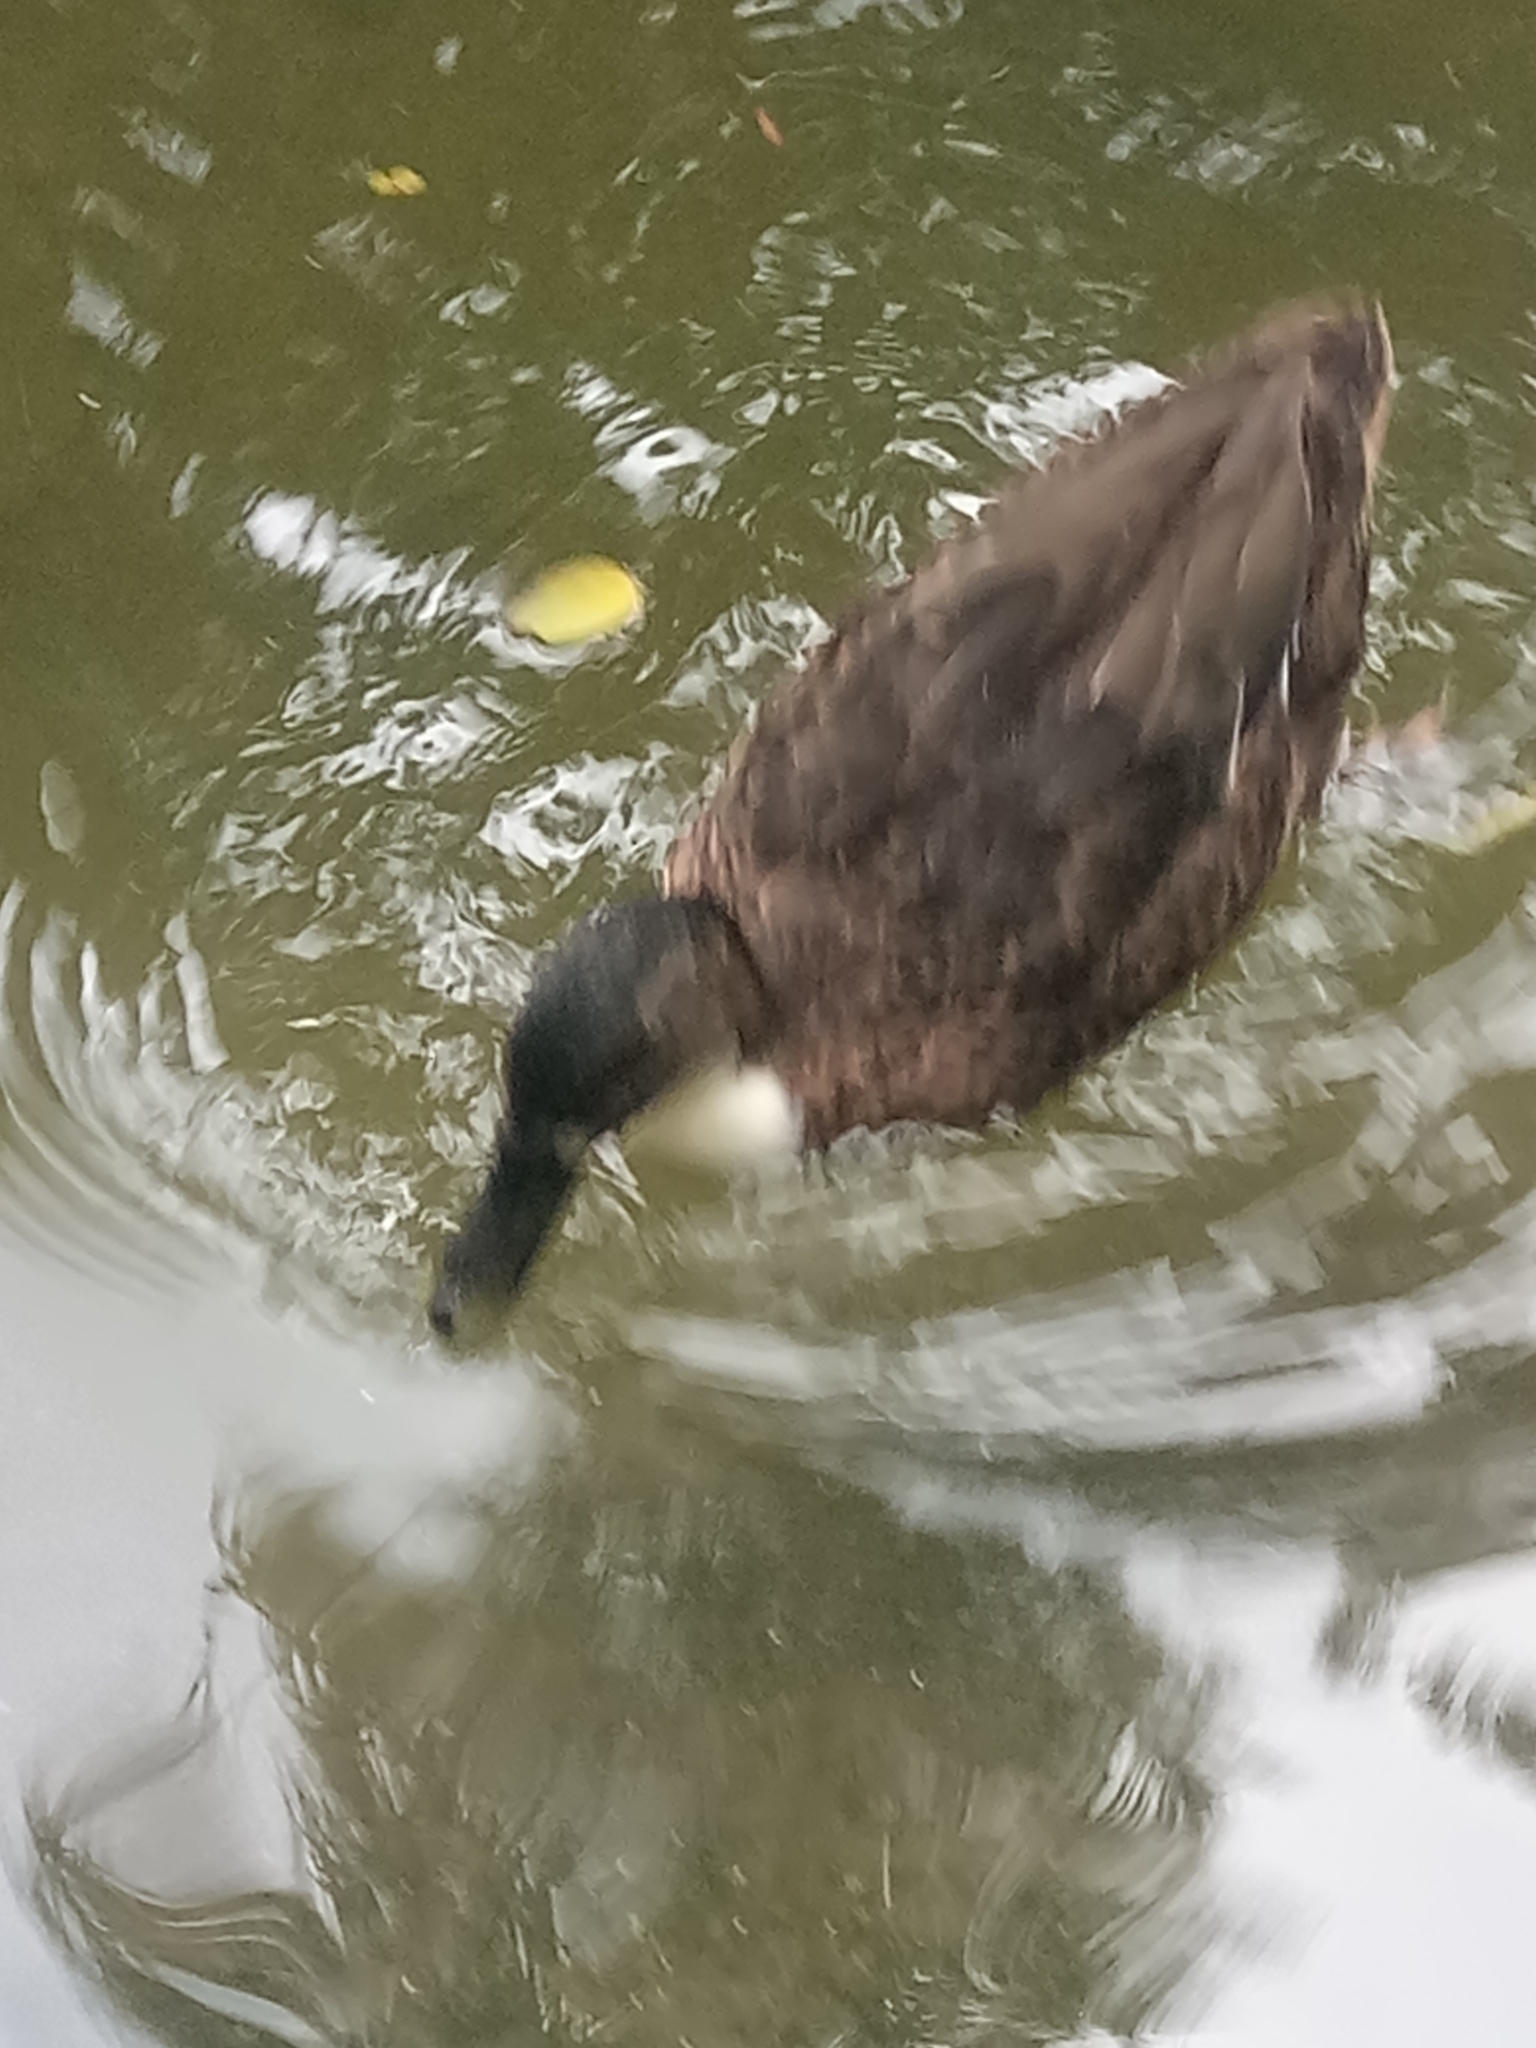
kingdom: Animalia
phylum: Chordata
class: Aves
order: Anseriformes
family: Anatidae
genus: Anas
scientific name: Anas platyrhynchos
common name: Mallard
